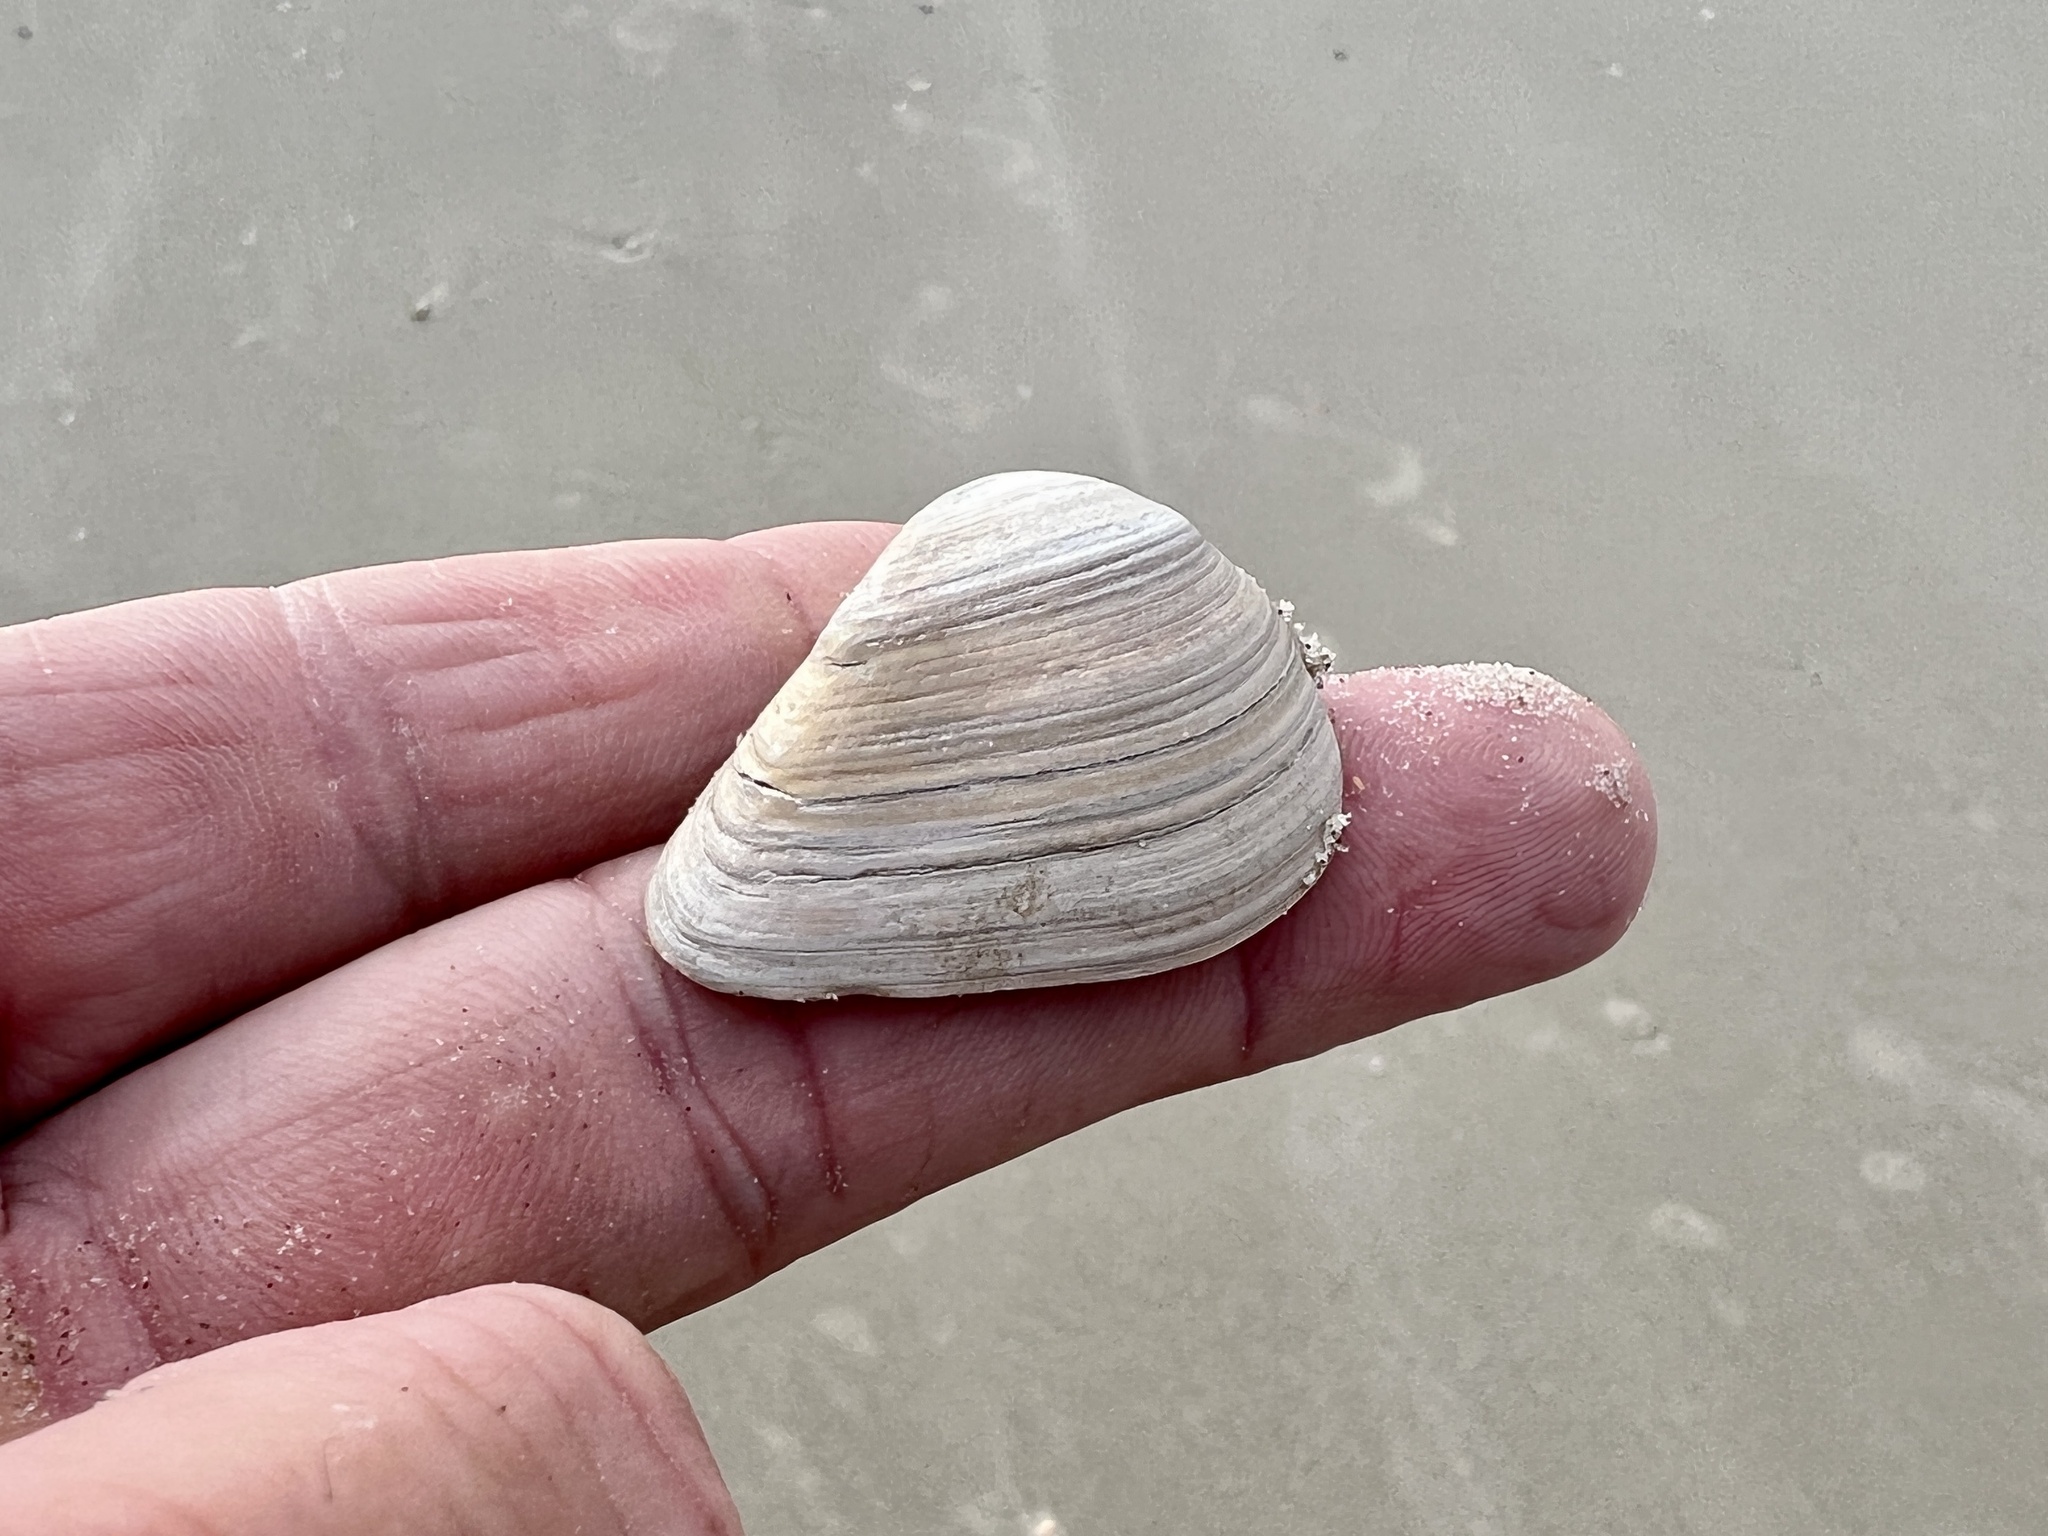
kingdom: Animalia
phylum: Mollusca
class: Bivalvia
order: Venerida
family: Mactridae
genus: Rangia
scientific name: Rangia flexuosa
